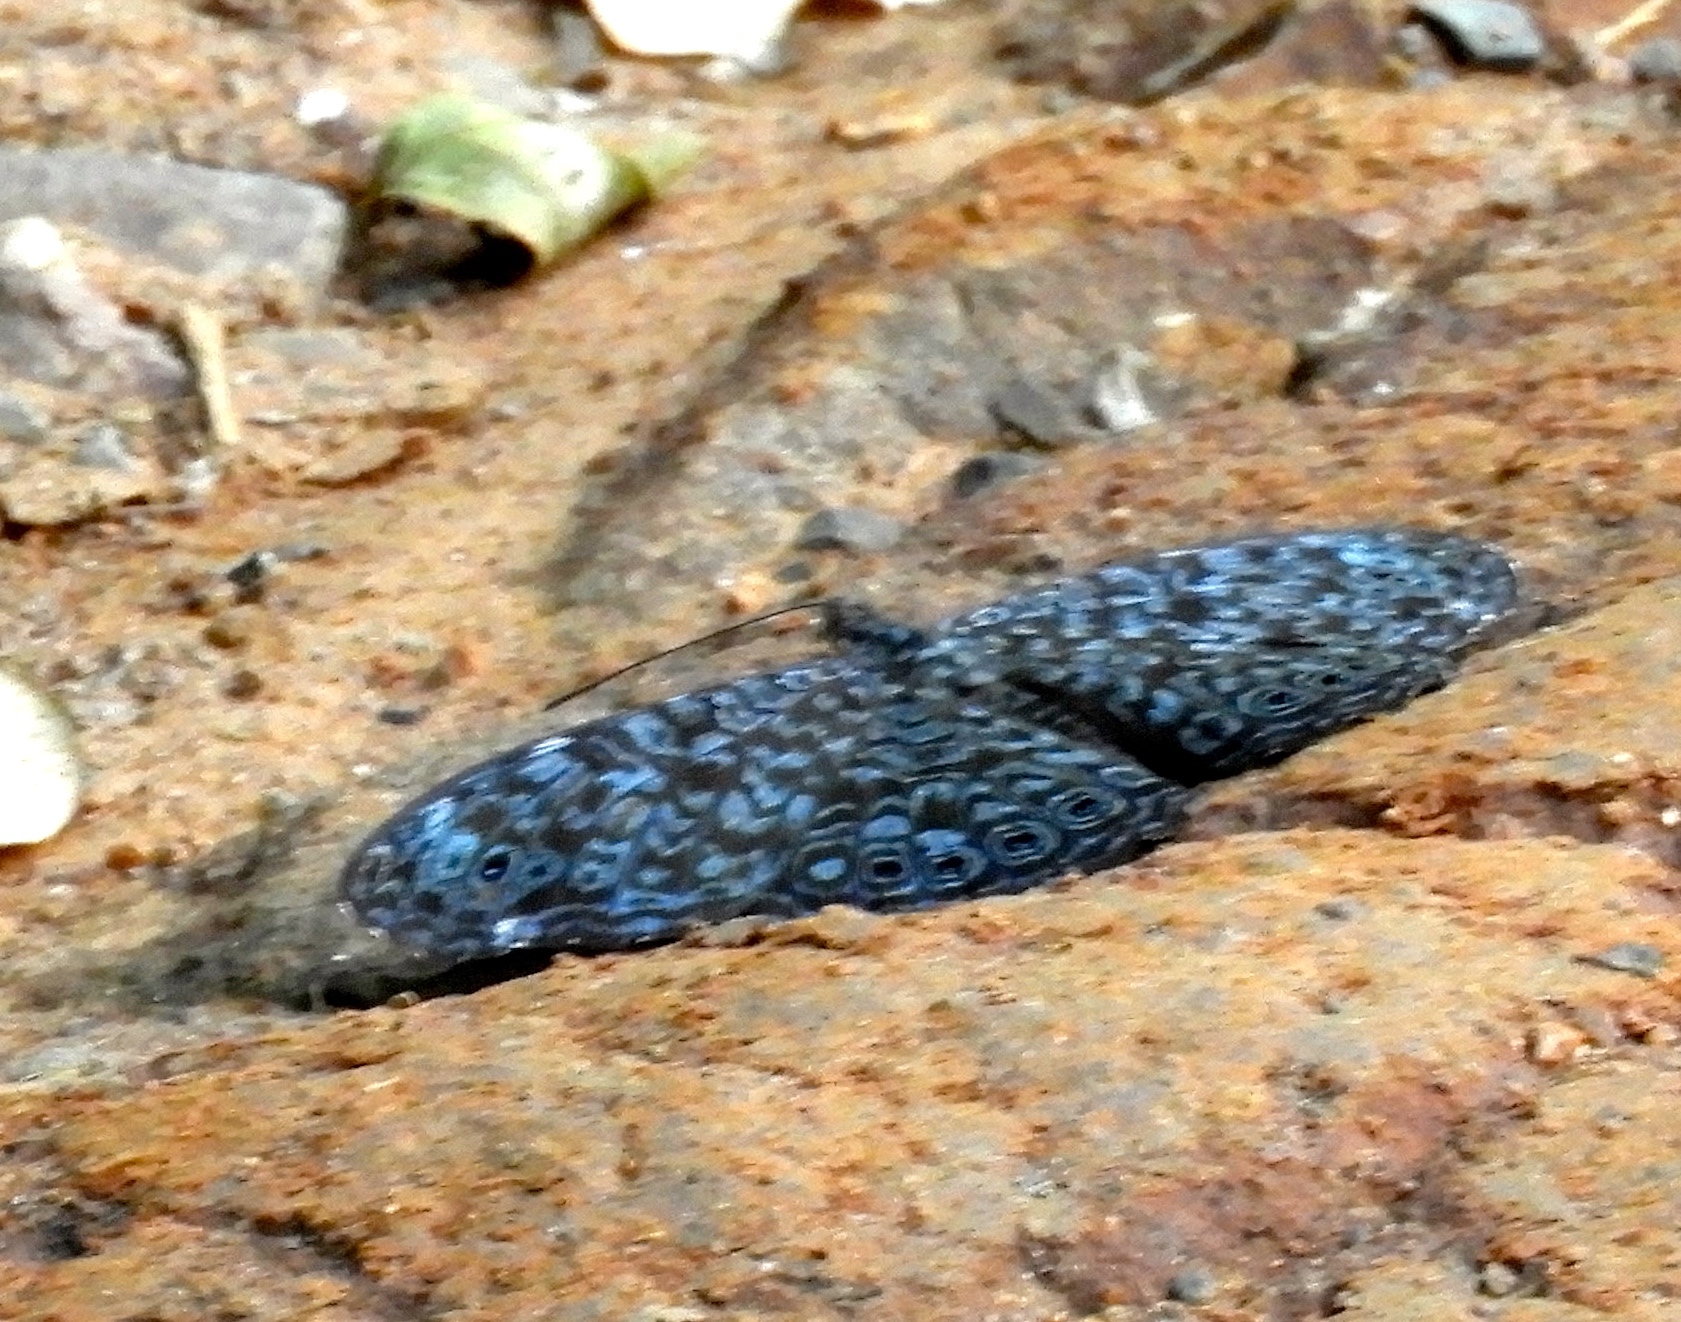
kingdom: Animalia
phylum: Arthropoda
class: Insecta
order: Lepidoptera
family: Nymphalidae
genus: Hamadryas
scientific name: Hamadryas lelaps
